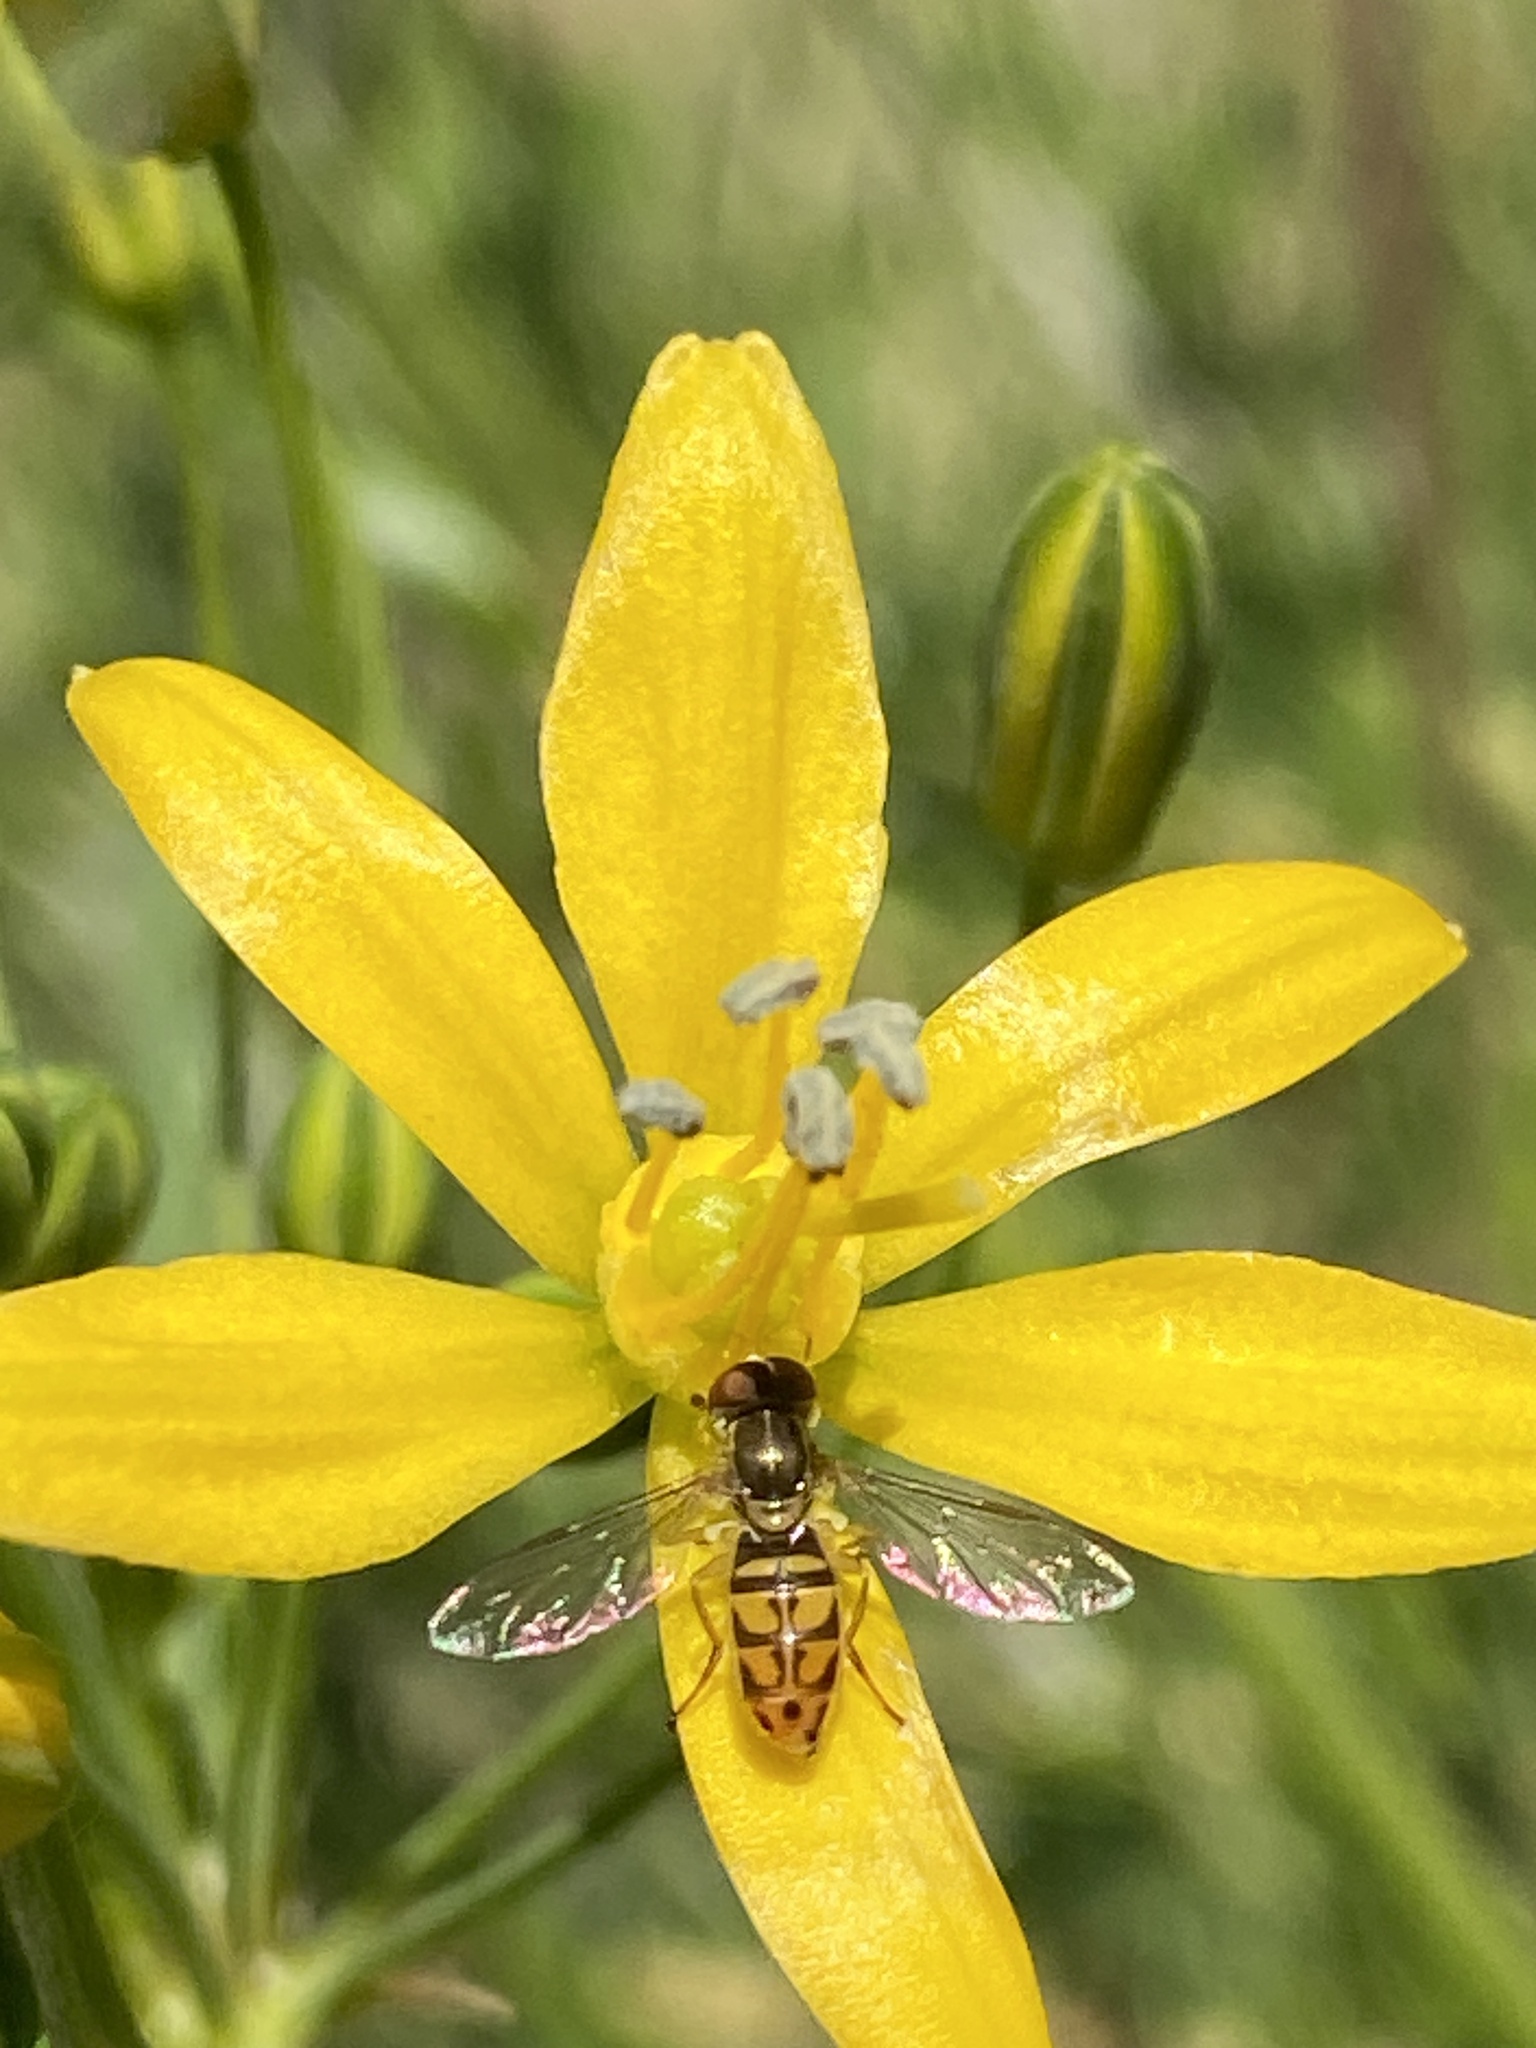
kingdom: Animalia
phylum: Arthropoda
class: Insecta
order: Diptera
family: Syrphidae
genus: Toxomerus
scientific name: Toxomerus marginatus
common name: Syrphid fly
